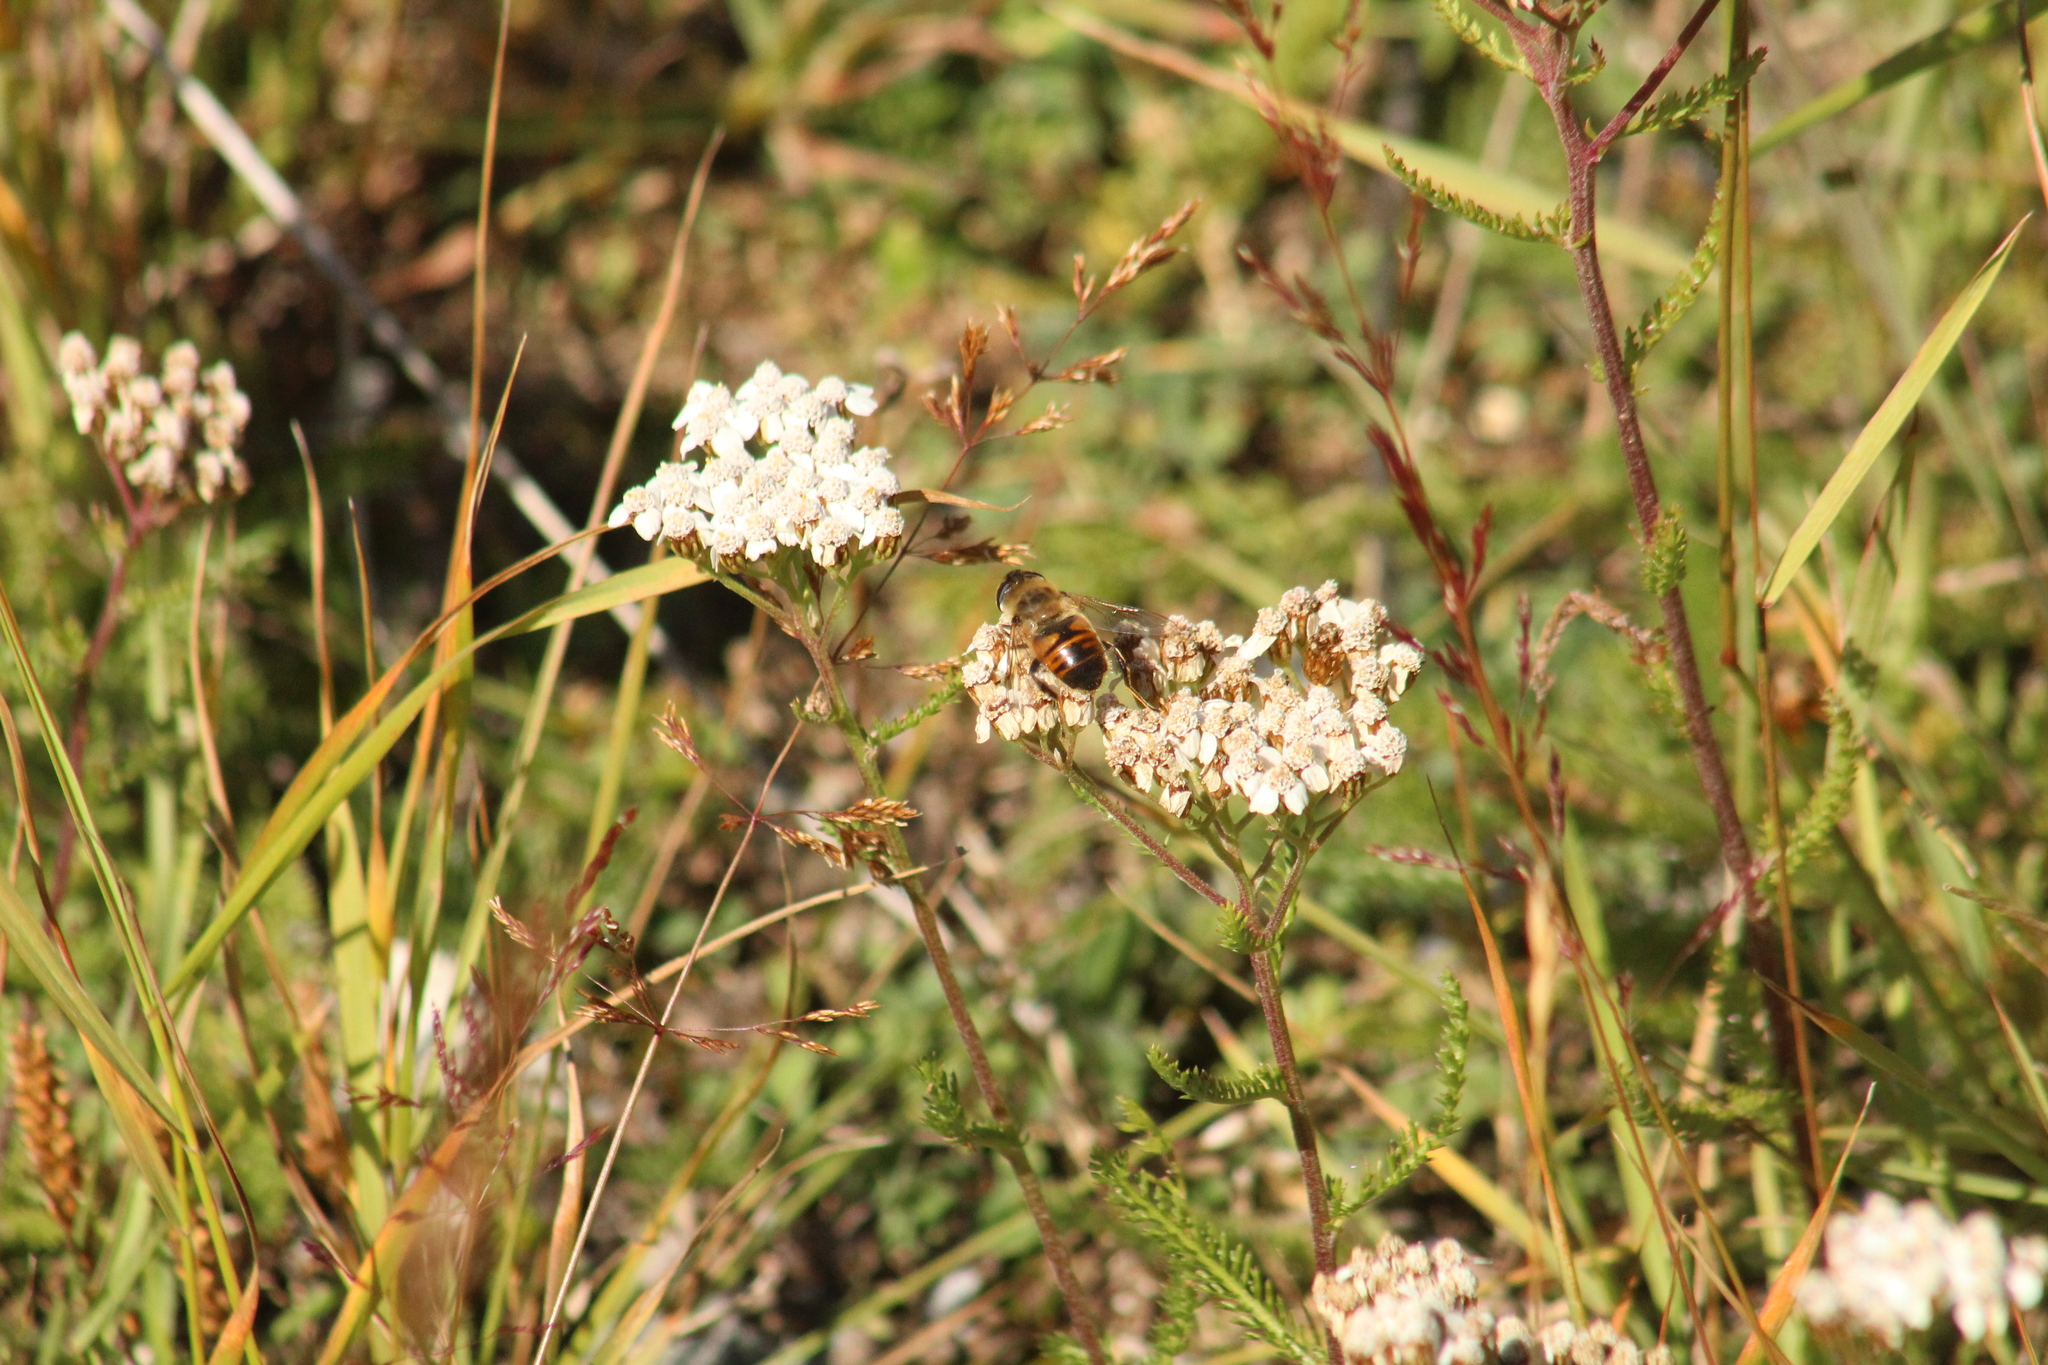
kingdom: Animalia
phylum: Arthropoda
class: Insecta
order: Diptera
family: Syrphidae
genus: Eristalis
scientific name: Eristalis tenax
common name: Drone fly
